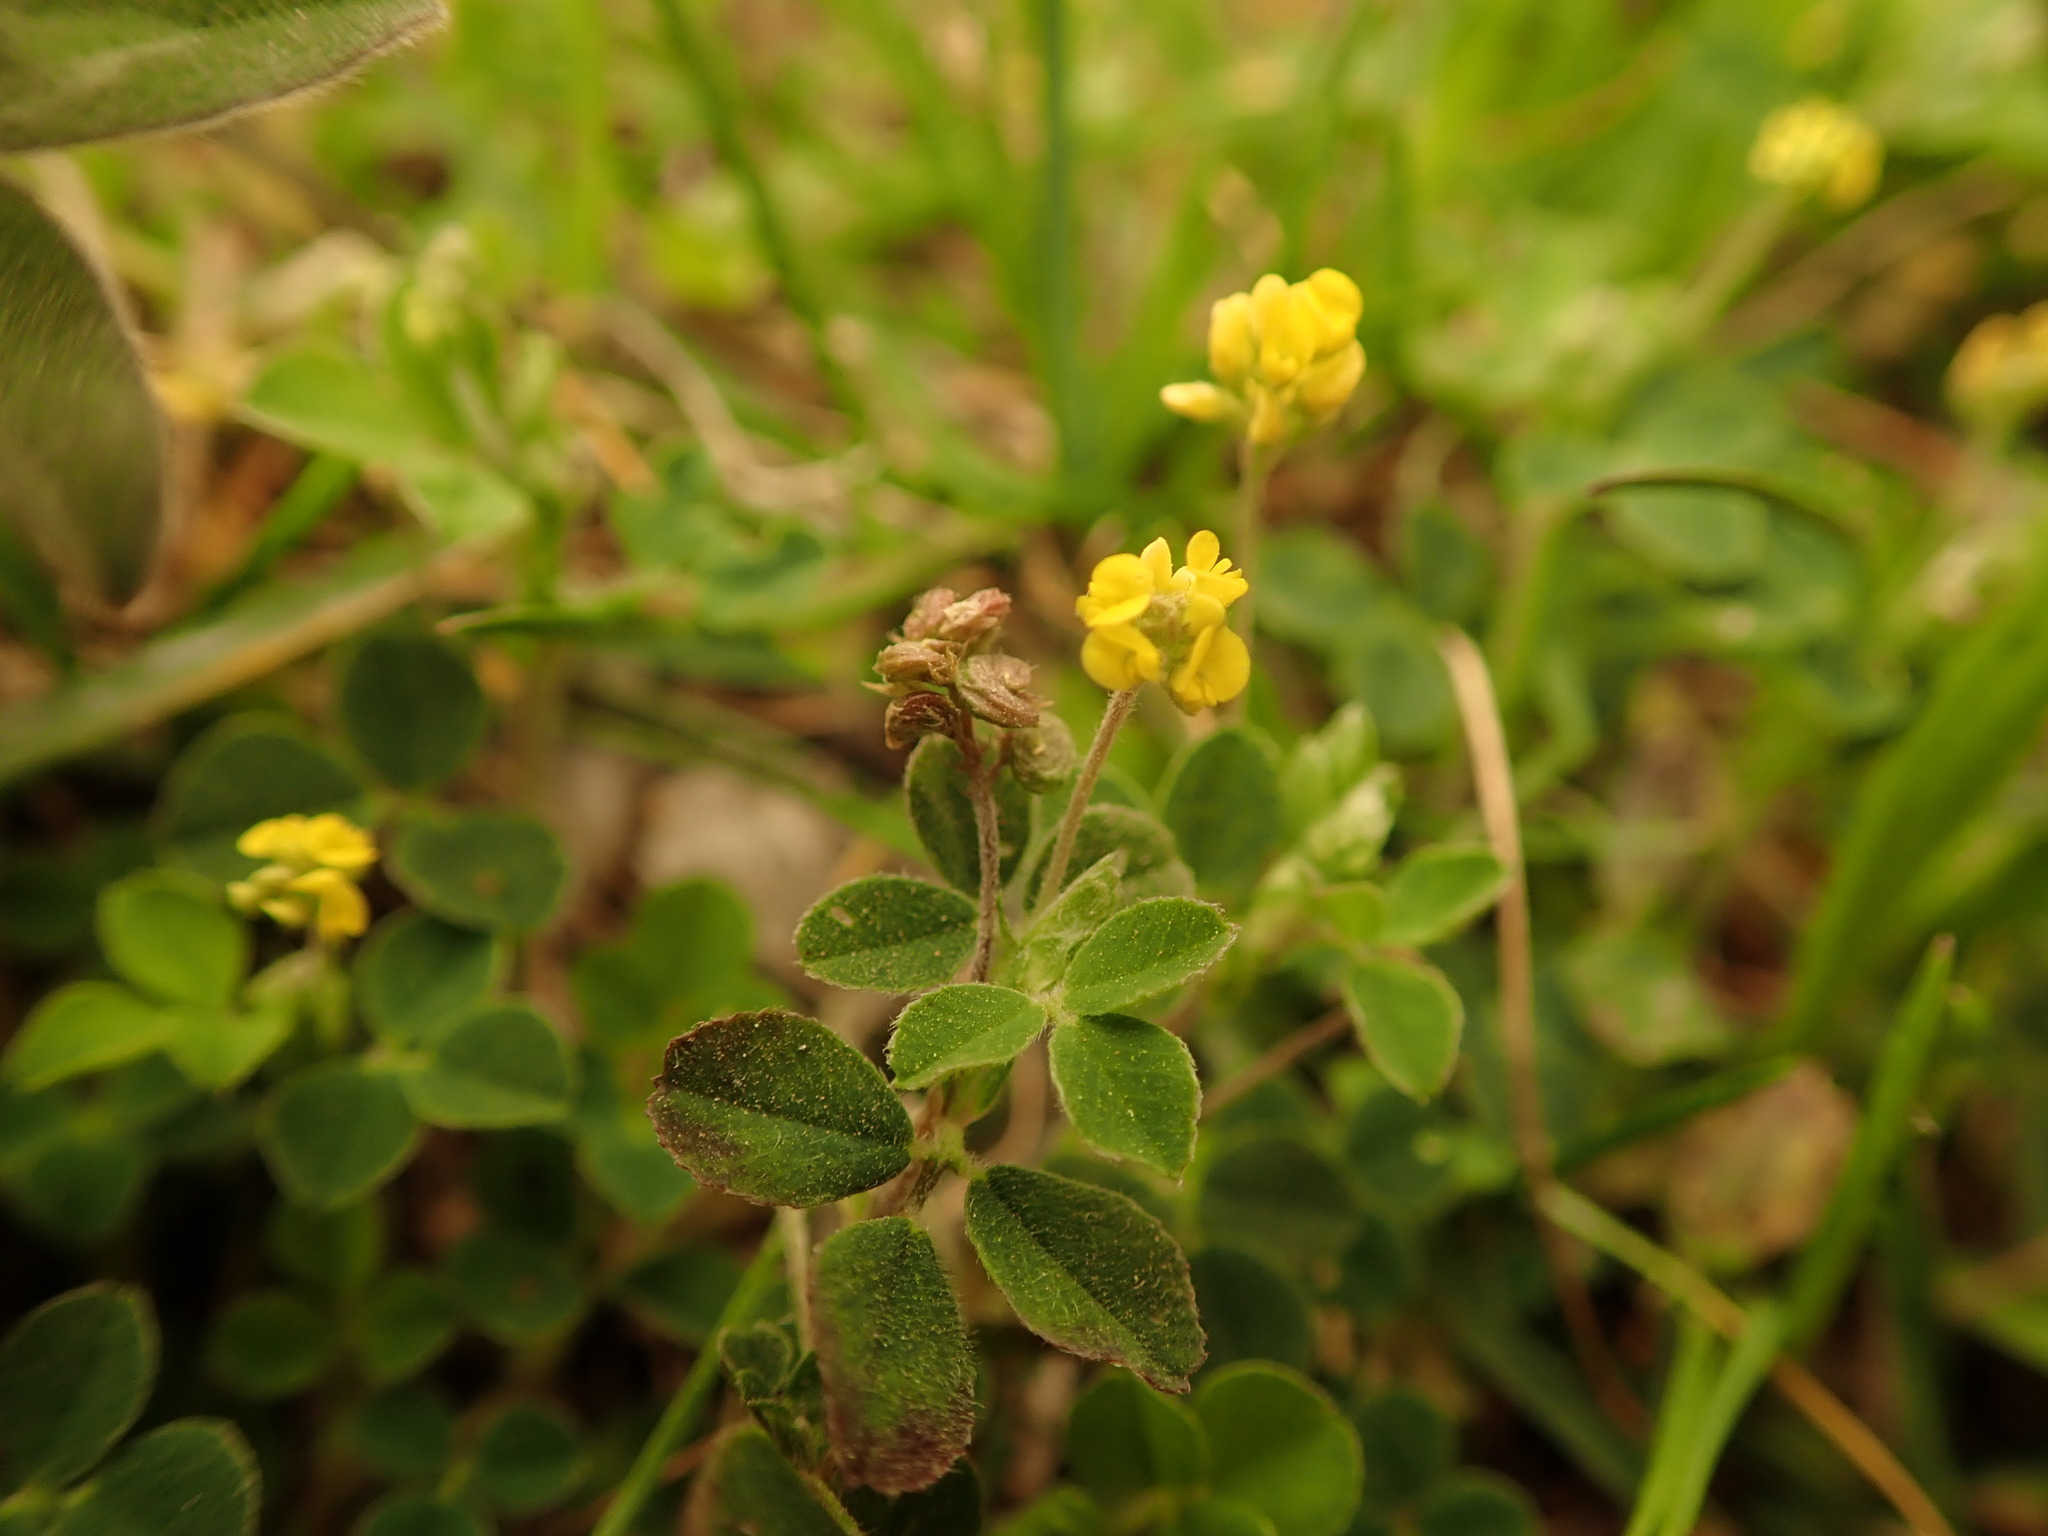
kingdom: Plantae
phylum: Tracheophyta
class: Magnoliopsida
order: Fabales
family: Fabaceae
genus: Medicago
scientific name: Medicago lupulina
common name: Black medick
